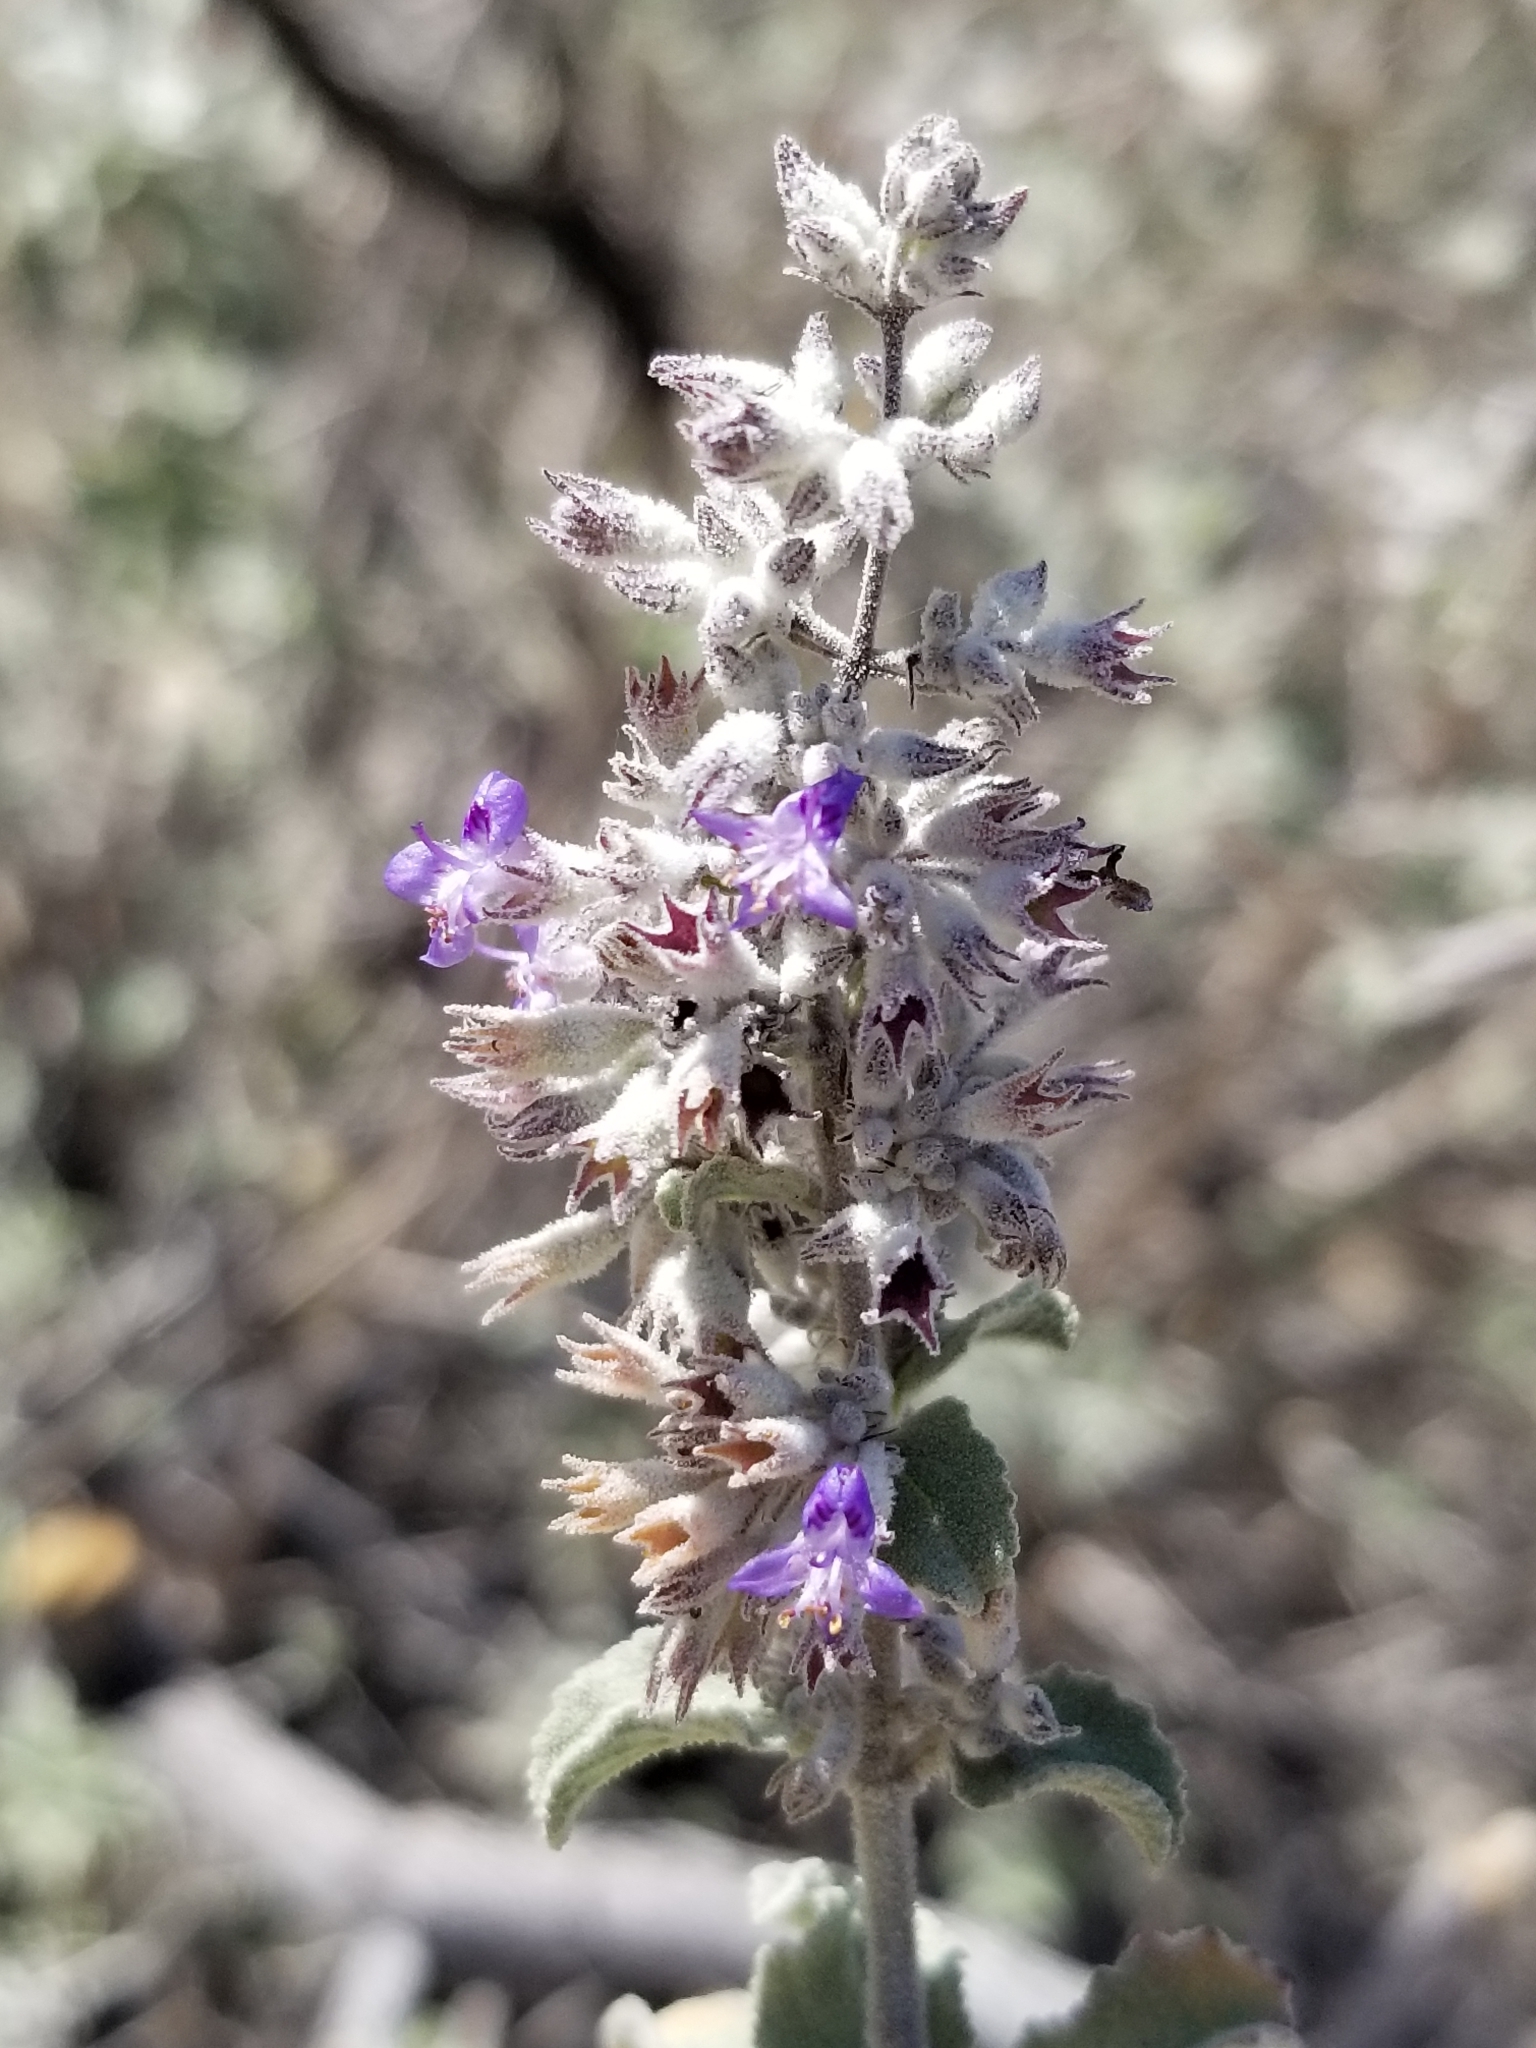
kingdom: Plantae
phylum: Tracheophyta
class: Magnoliopsida
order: Lamiales
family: Lamiaceae
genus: Condea
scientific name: Condea emoryi
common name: Chia
